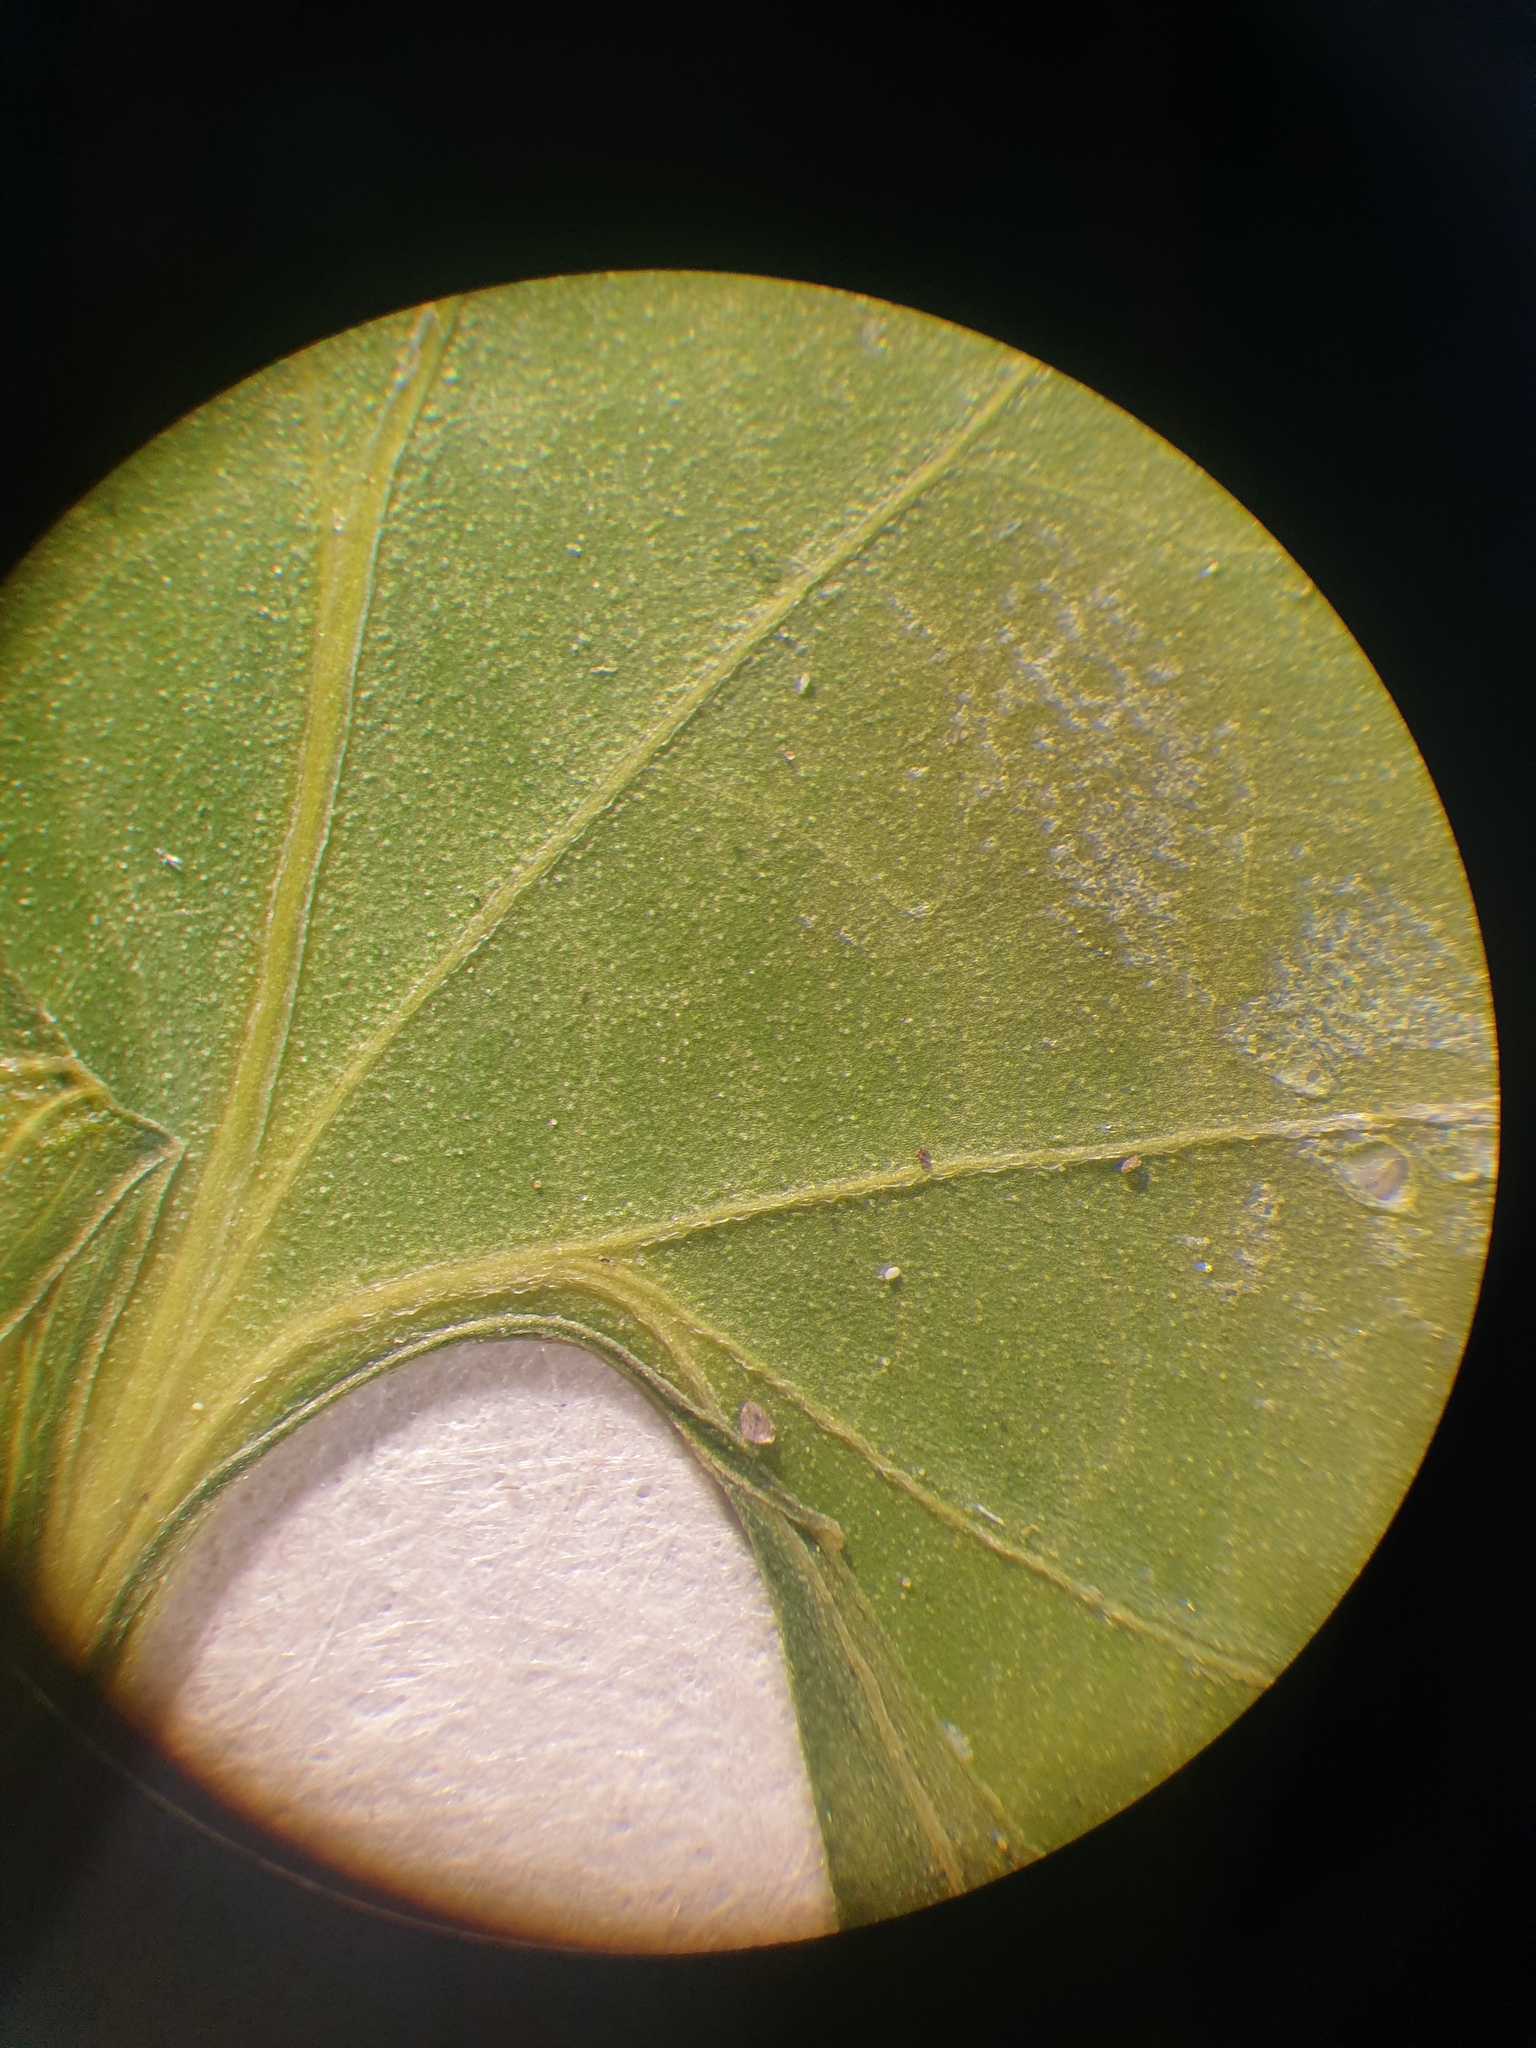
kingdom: Plantae
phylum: Tracheophyta
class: Magnoliopsida
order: Malpighiales
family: Violaceae
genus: Viola
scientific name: Viola communis
